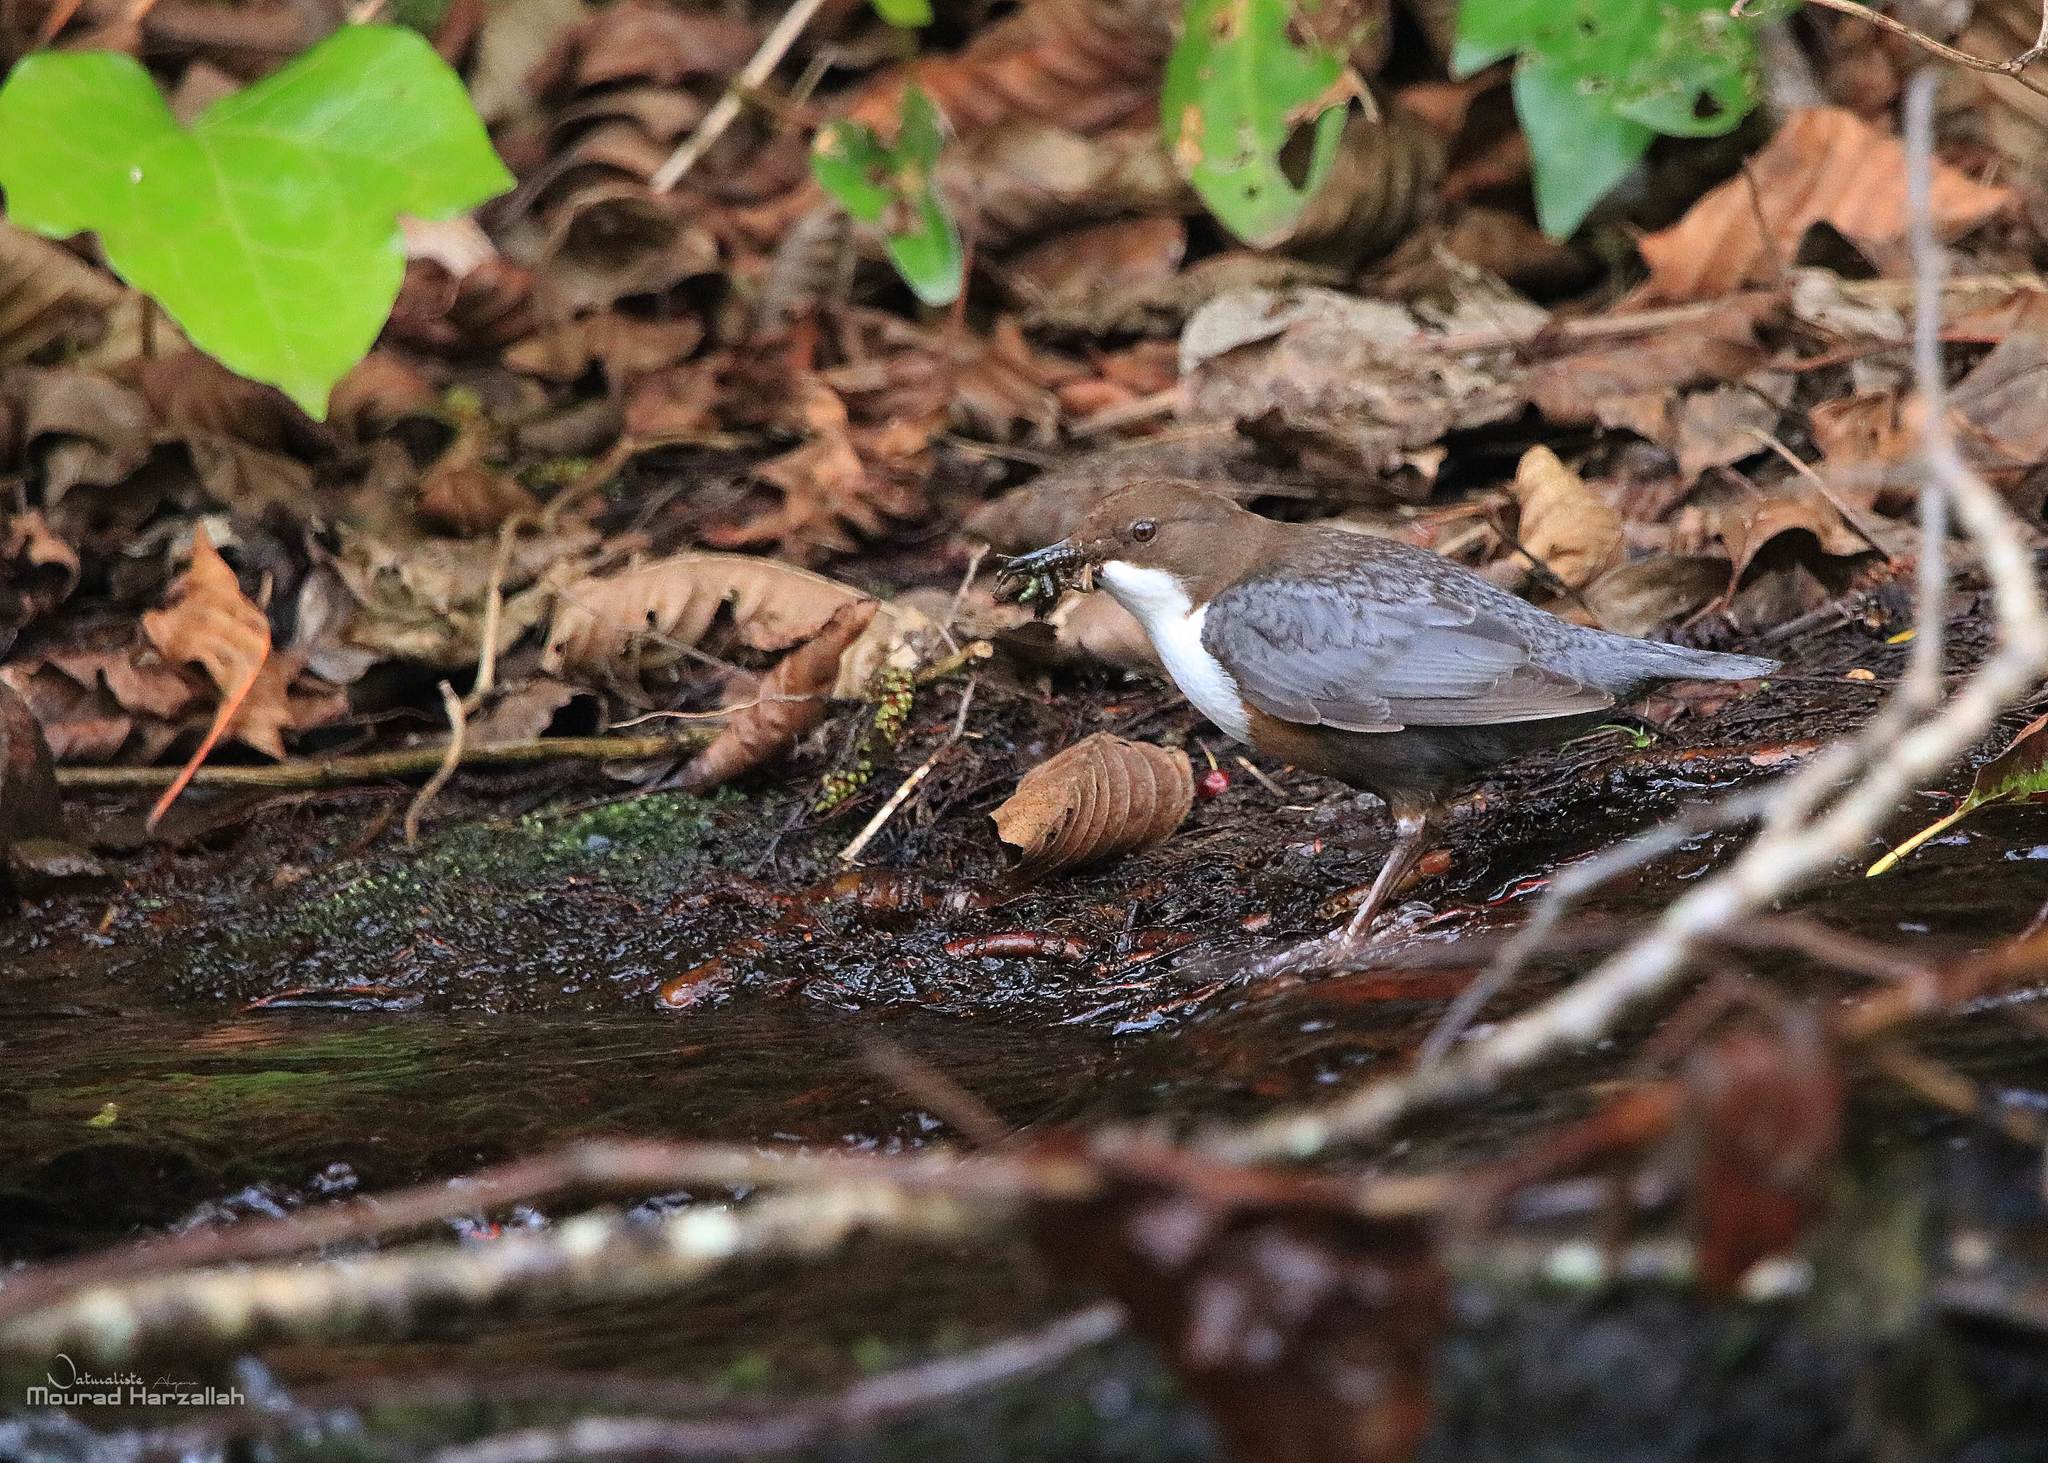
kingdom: Animalia
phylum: Chordata
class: Aves
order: Passeriformes
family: Cinclidae
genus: Cinclus
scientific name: Cinclus cinclus
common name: White-throated dipper
